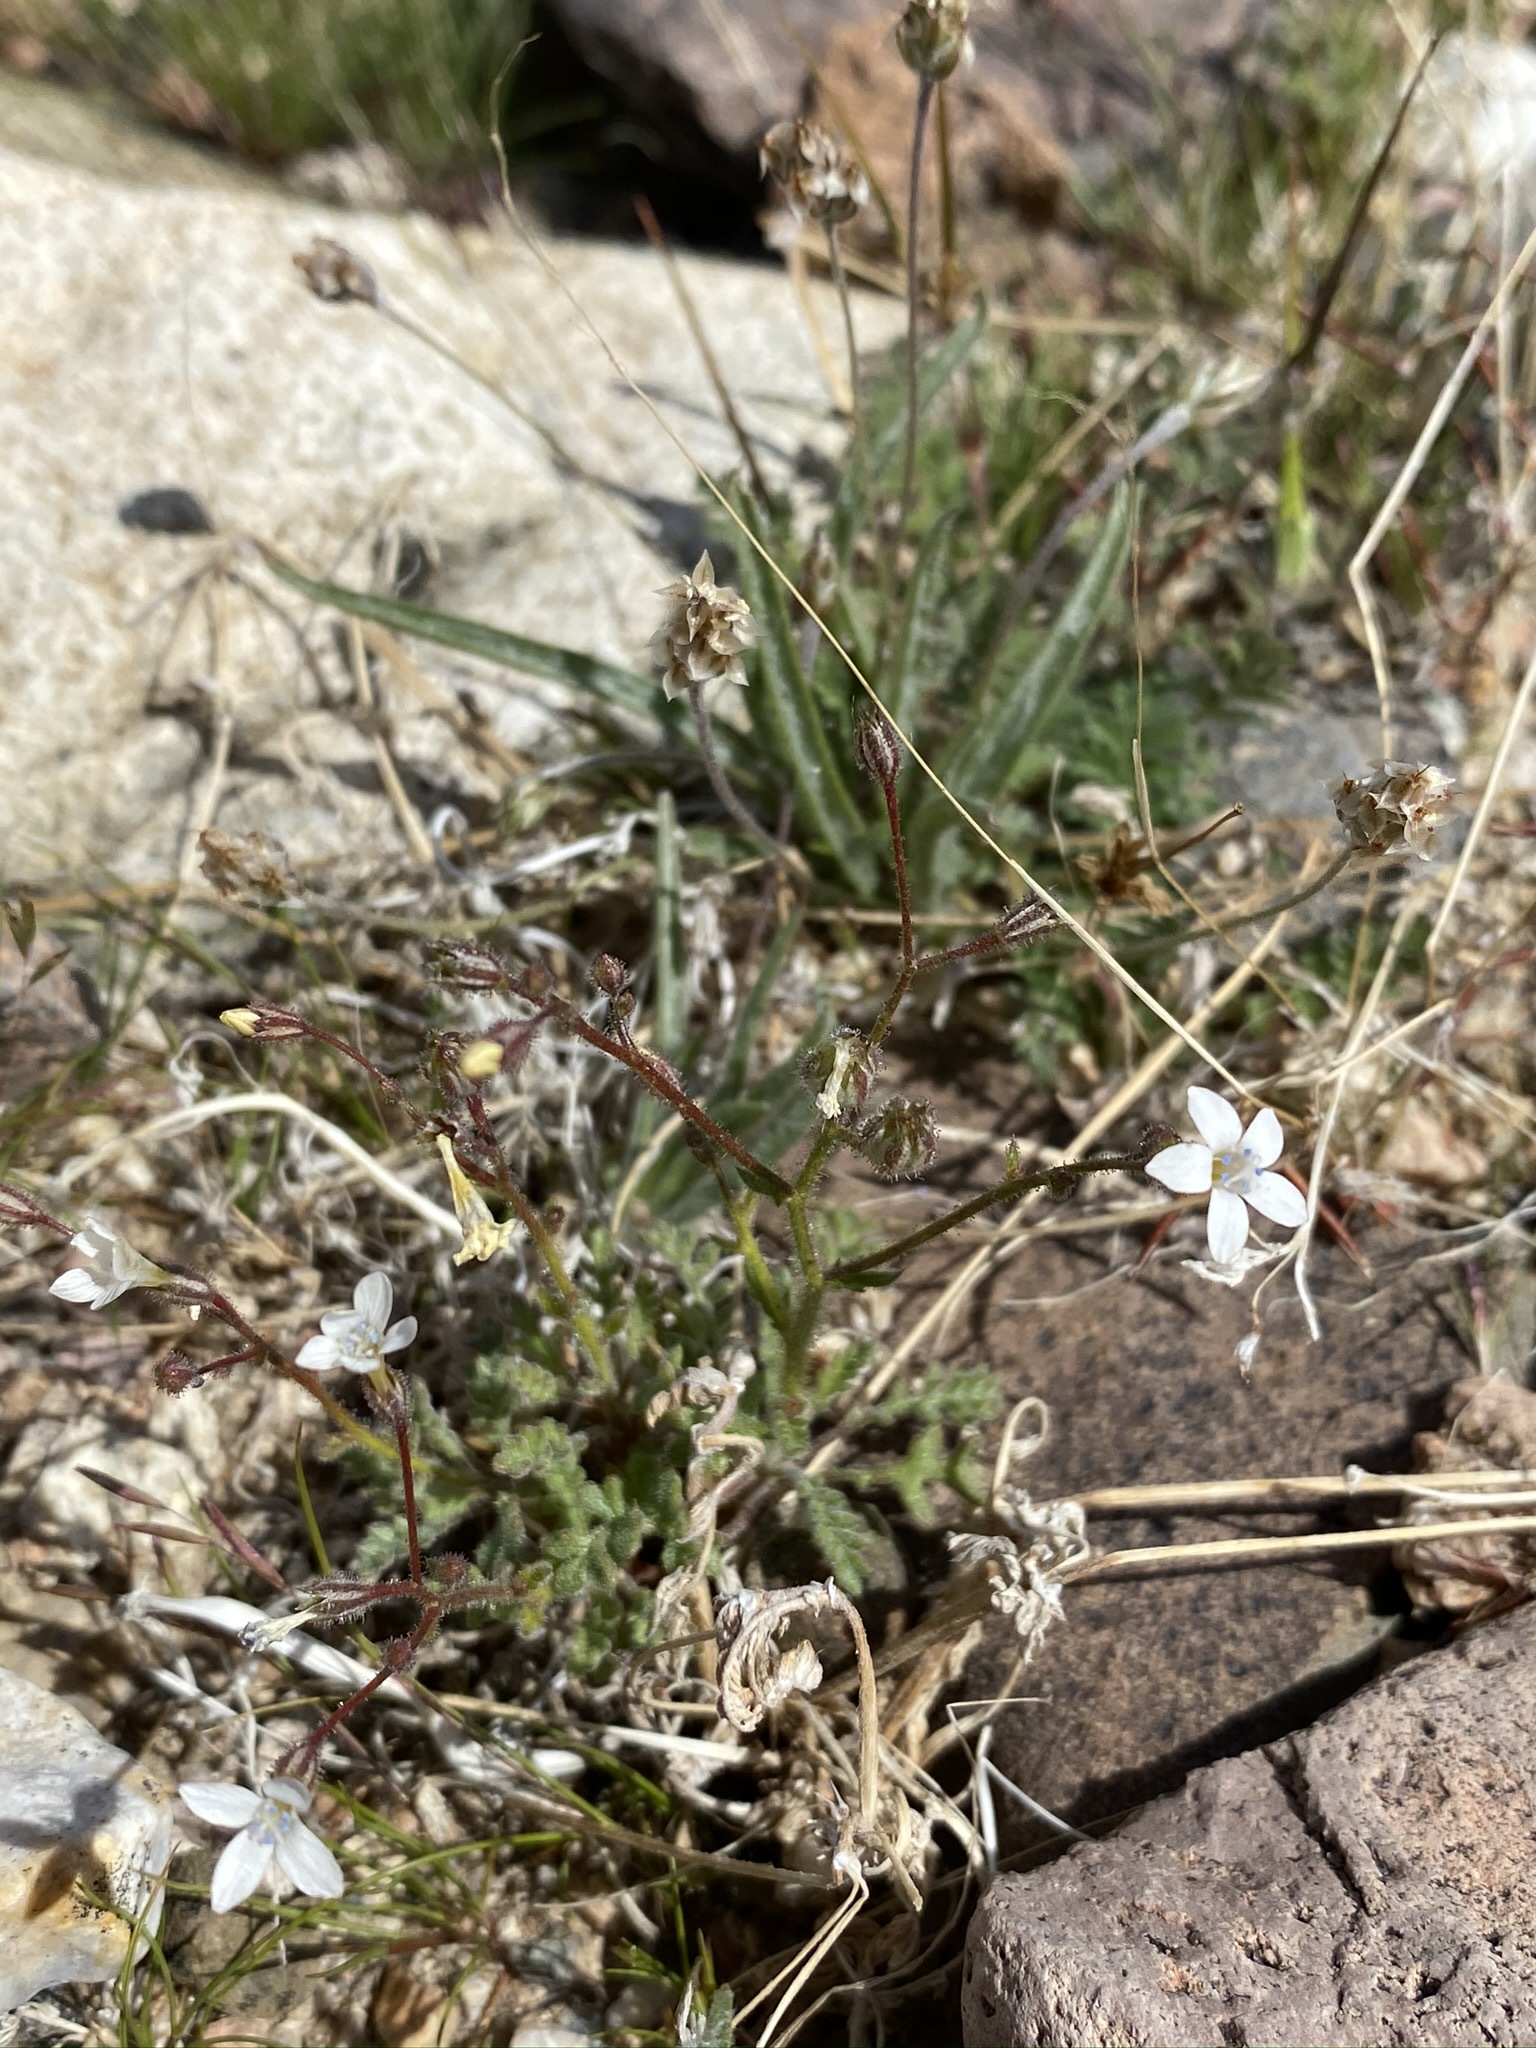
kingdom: Plantae
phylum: Tracheophyta
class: Magnoliopsida
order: Ericales
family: Polemoniaceae
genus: Gilia
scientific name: Gilia stellata
